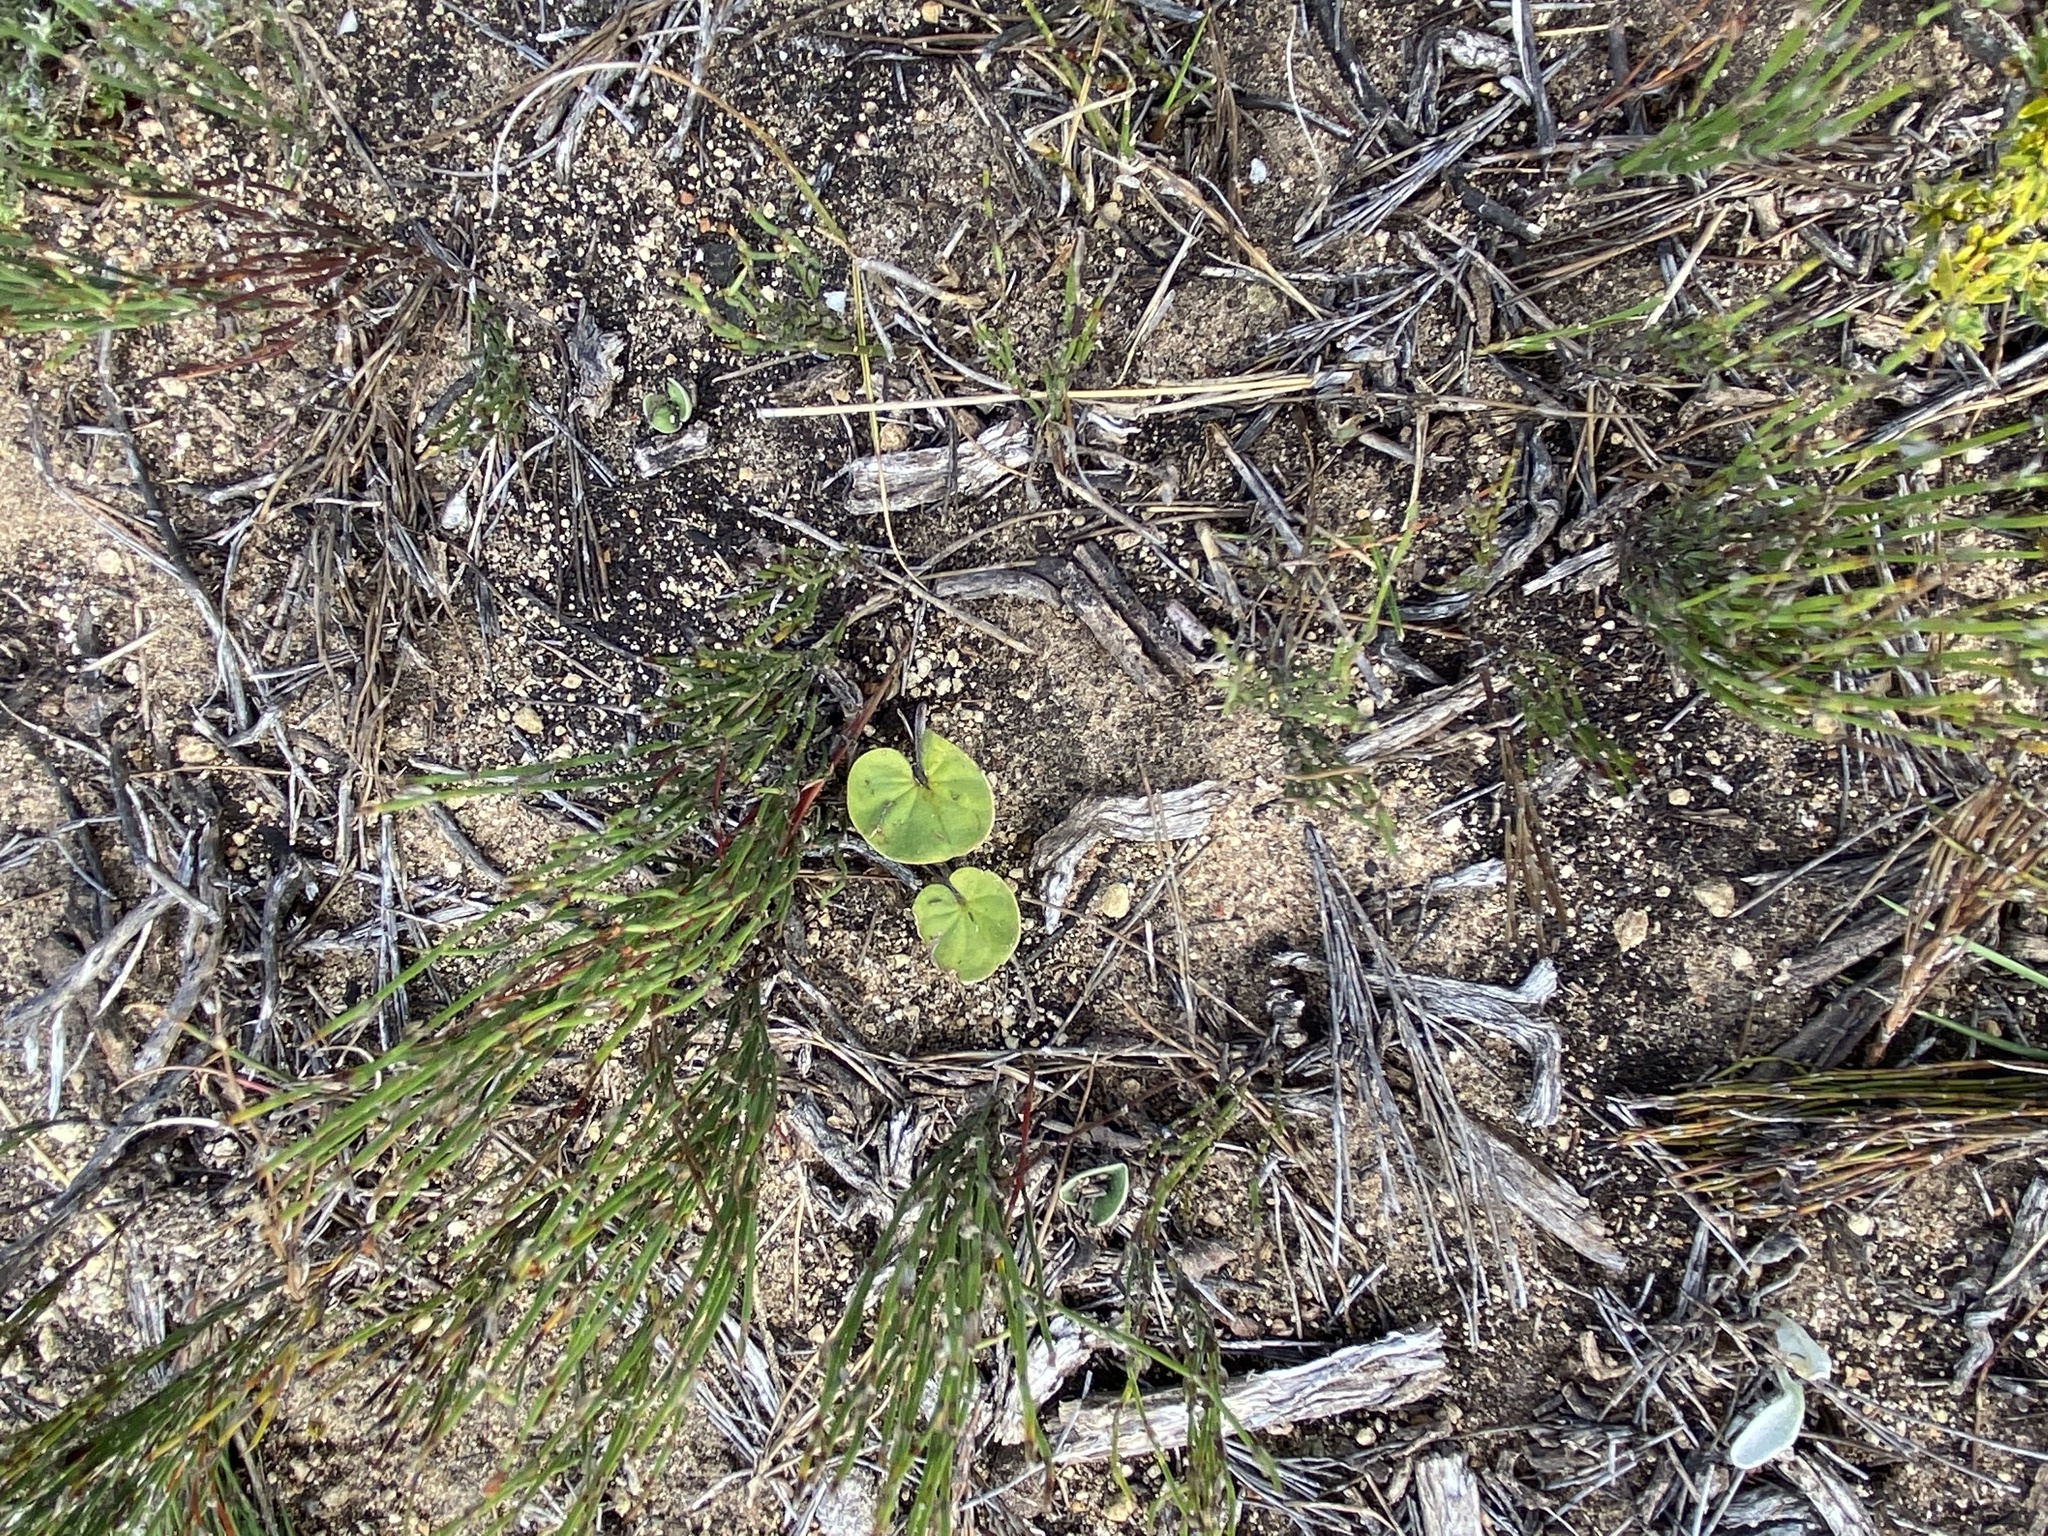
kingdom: Plantae
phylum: Tracheophyta
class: Magnoliopsida
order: Solanales
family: Convolvulaceae
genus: Dichondra
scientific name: Dichondra micrantha
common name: Kidneyweed
